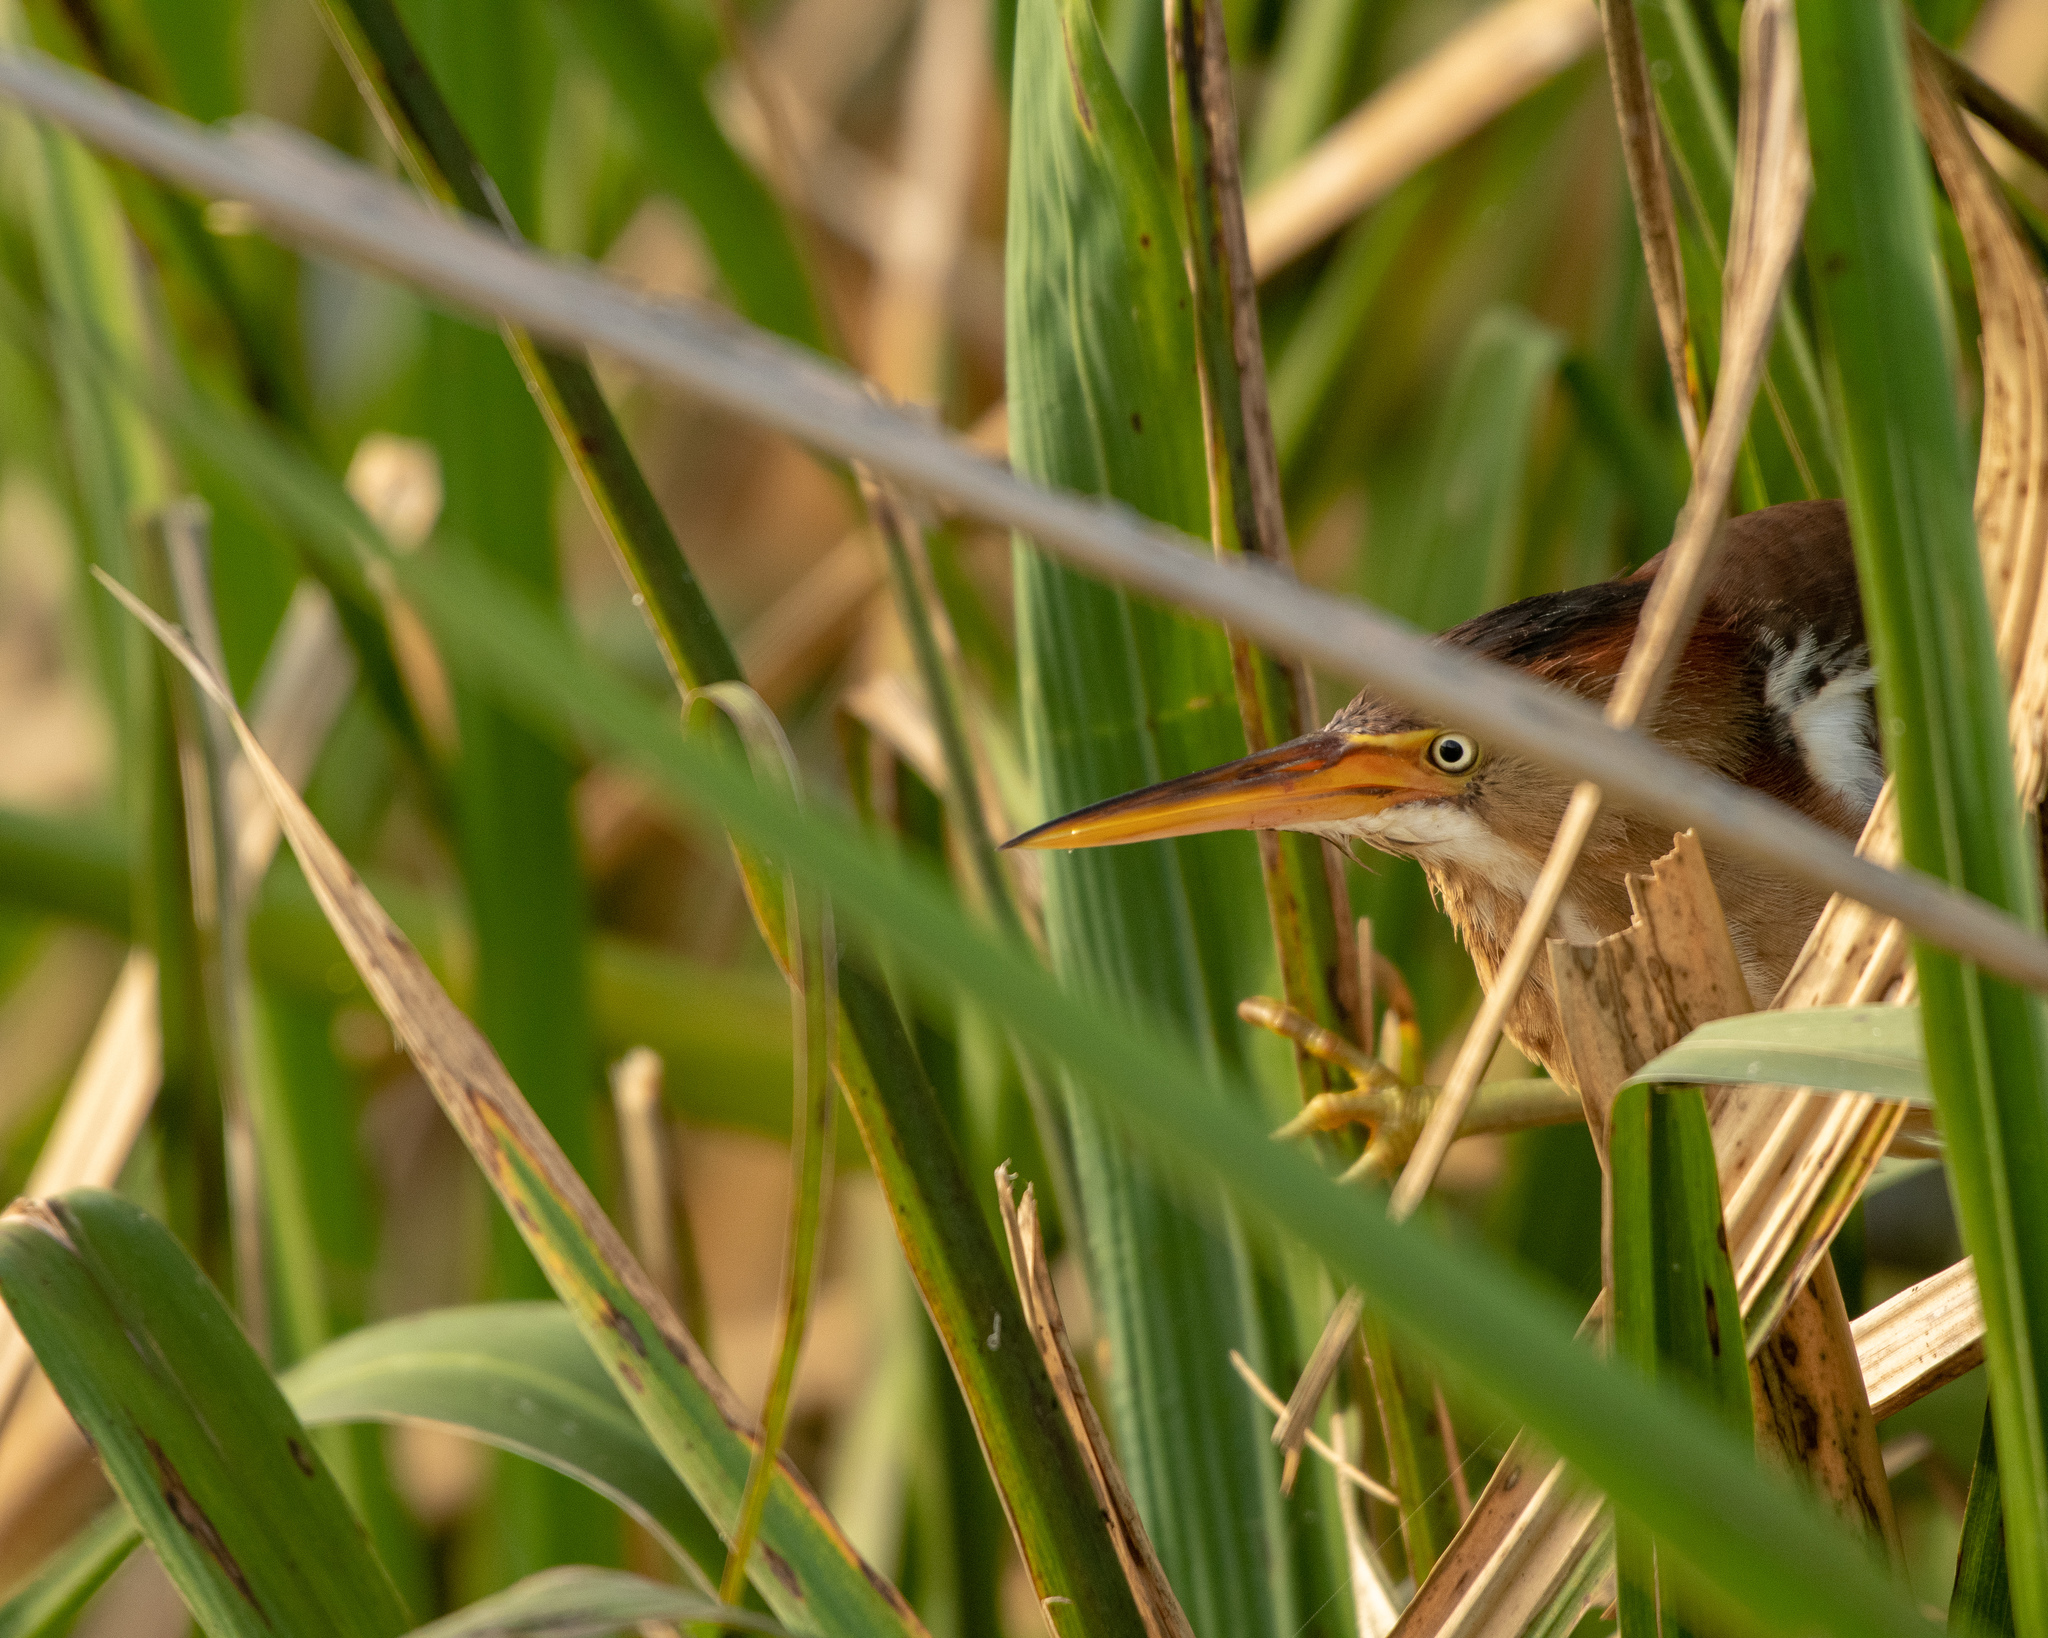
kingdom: Animalia
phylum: Chordata
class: Aves
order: Pelecaniformes
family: Ardeidae
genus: Ixobrychus
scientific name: Ixobrychus exilis
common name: Least bittern
